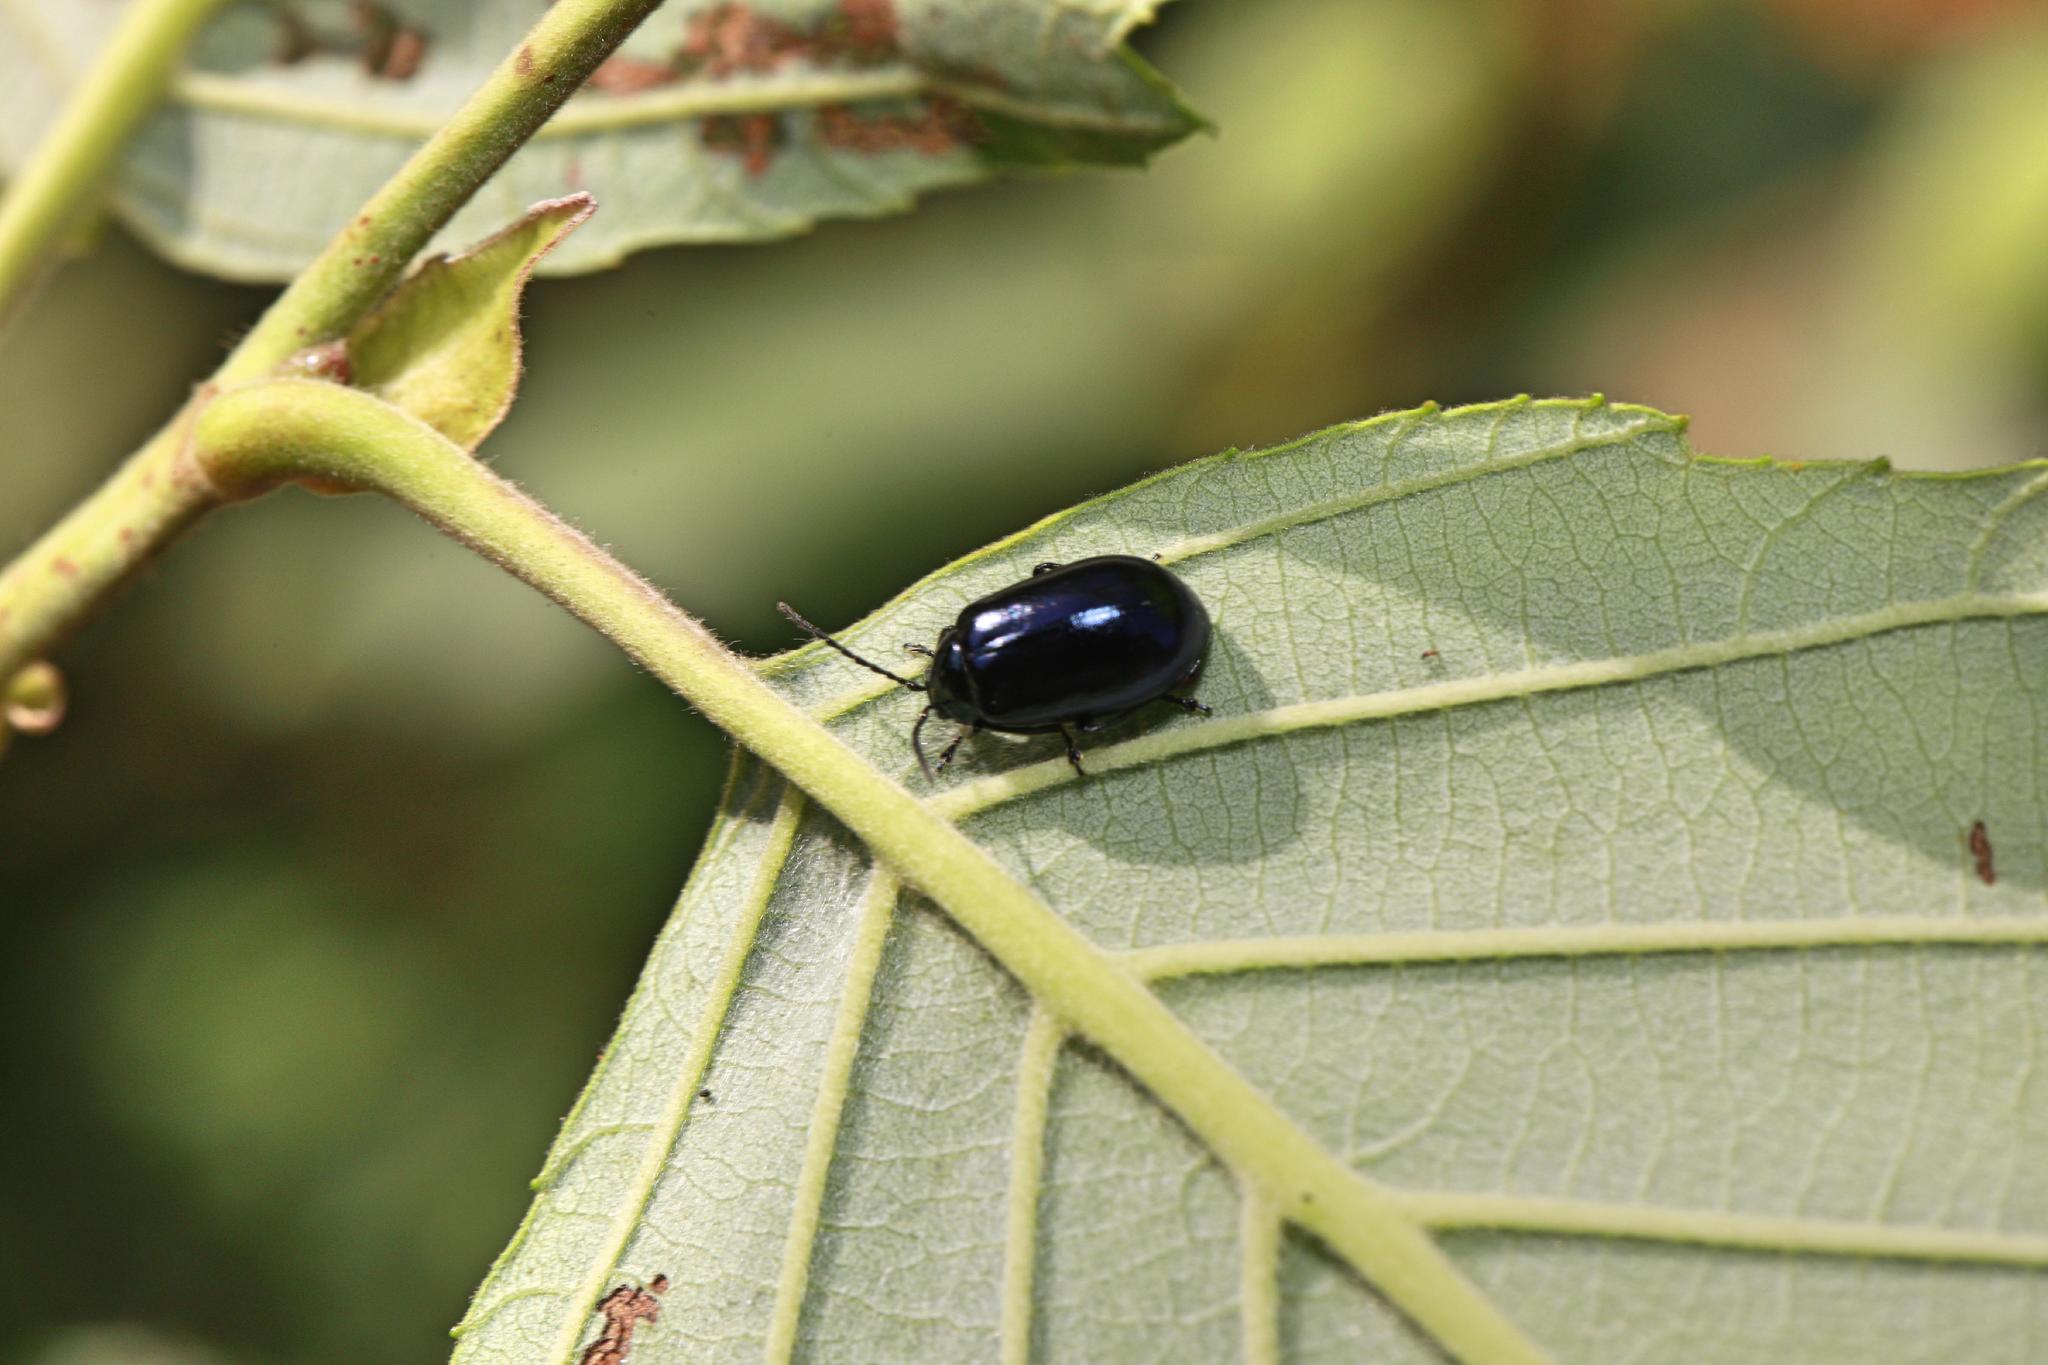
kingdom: Animalia
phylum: Arthropoda
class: Insecta
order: Coleoptera
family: Chrysomelidae
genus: Agelastica
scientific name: Agelastica alni
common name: Alder leaf beetle
